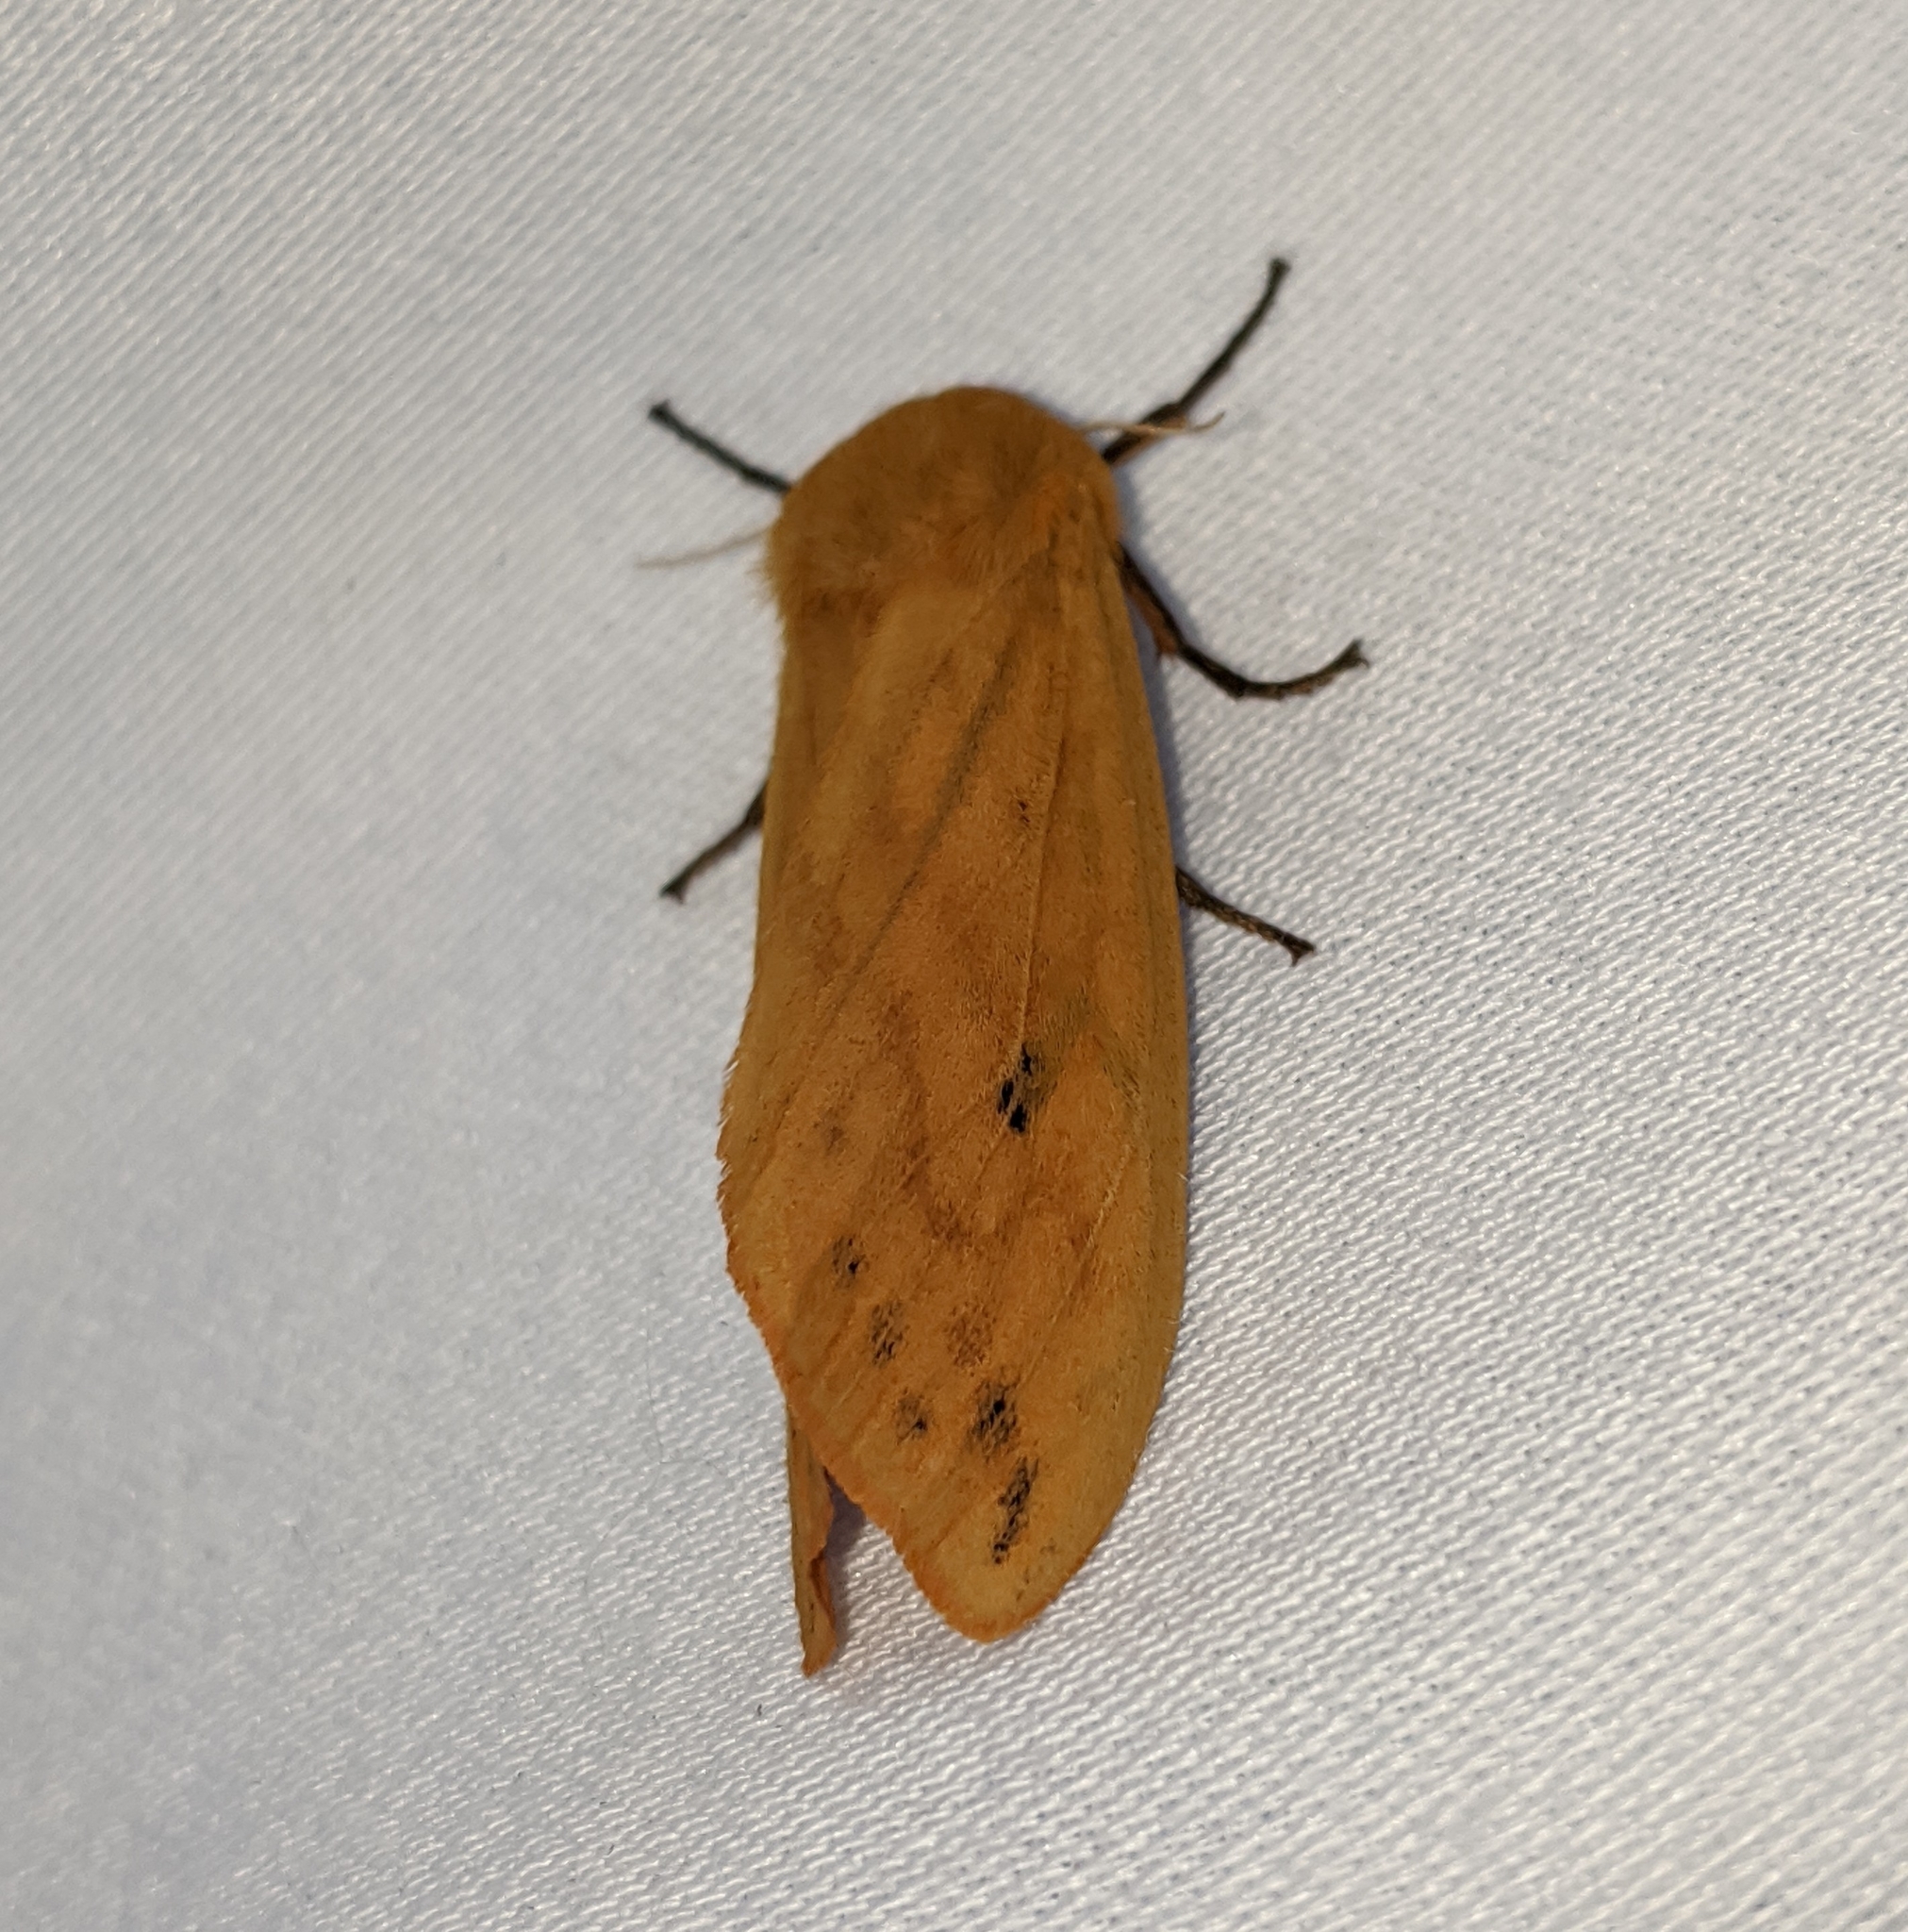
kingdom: Animalia
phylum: Arthropoda
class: Insecta
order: Lepidoptera
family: Erebidae
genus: Pyrrharctia
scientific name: Pyrrharctia isabella
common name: Isabella tiger moth
